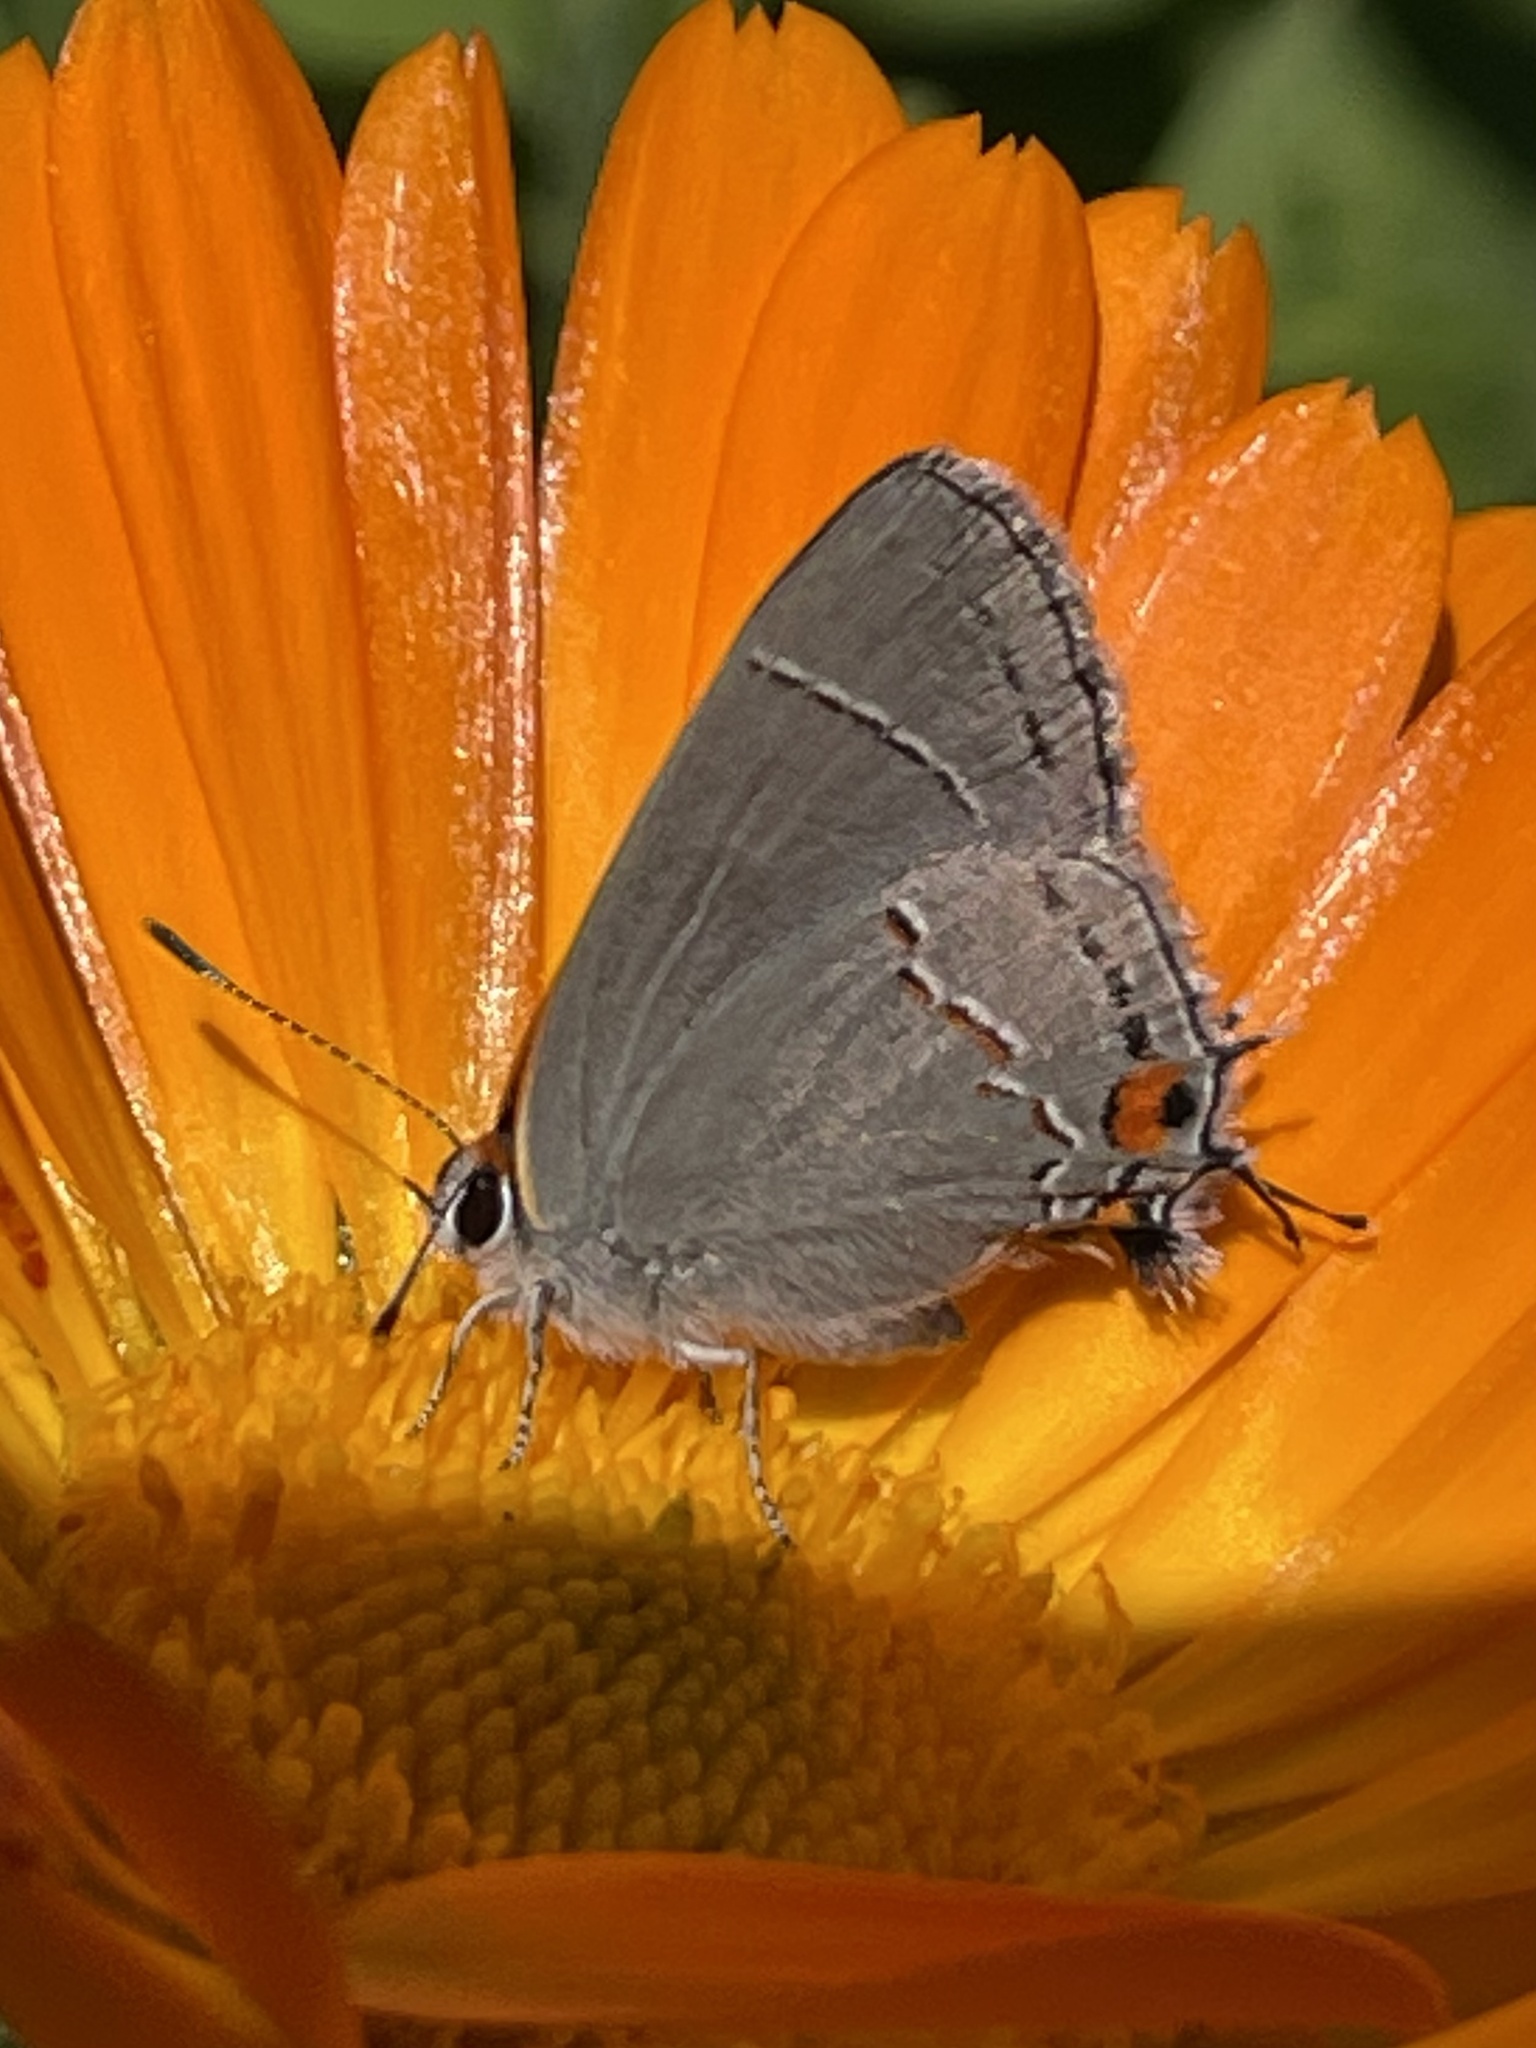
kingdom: Animalia
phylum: Arthropoda
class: Insecta
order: Lepidoptera
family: Lycaenidae
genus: Strymon
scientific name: Strymon melinus
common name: Gray hairstreak
